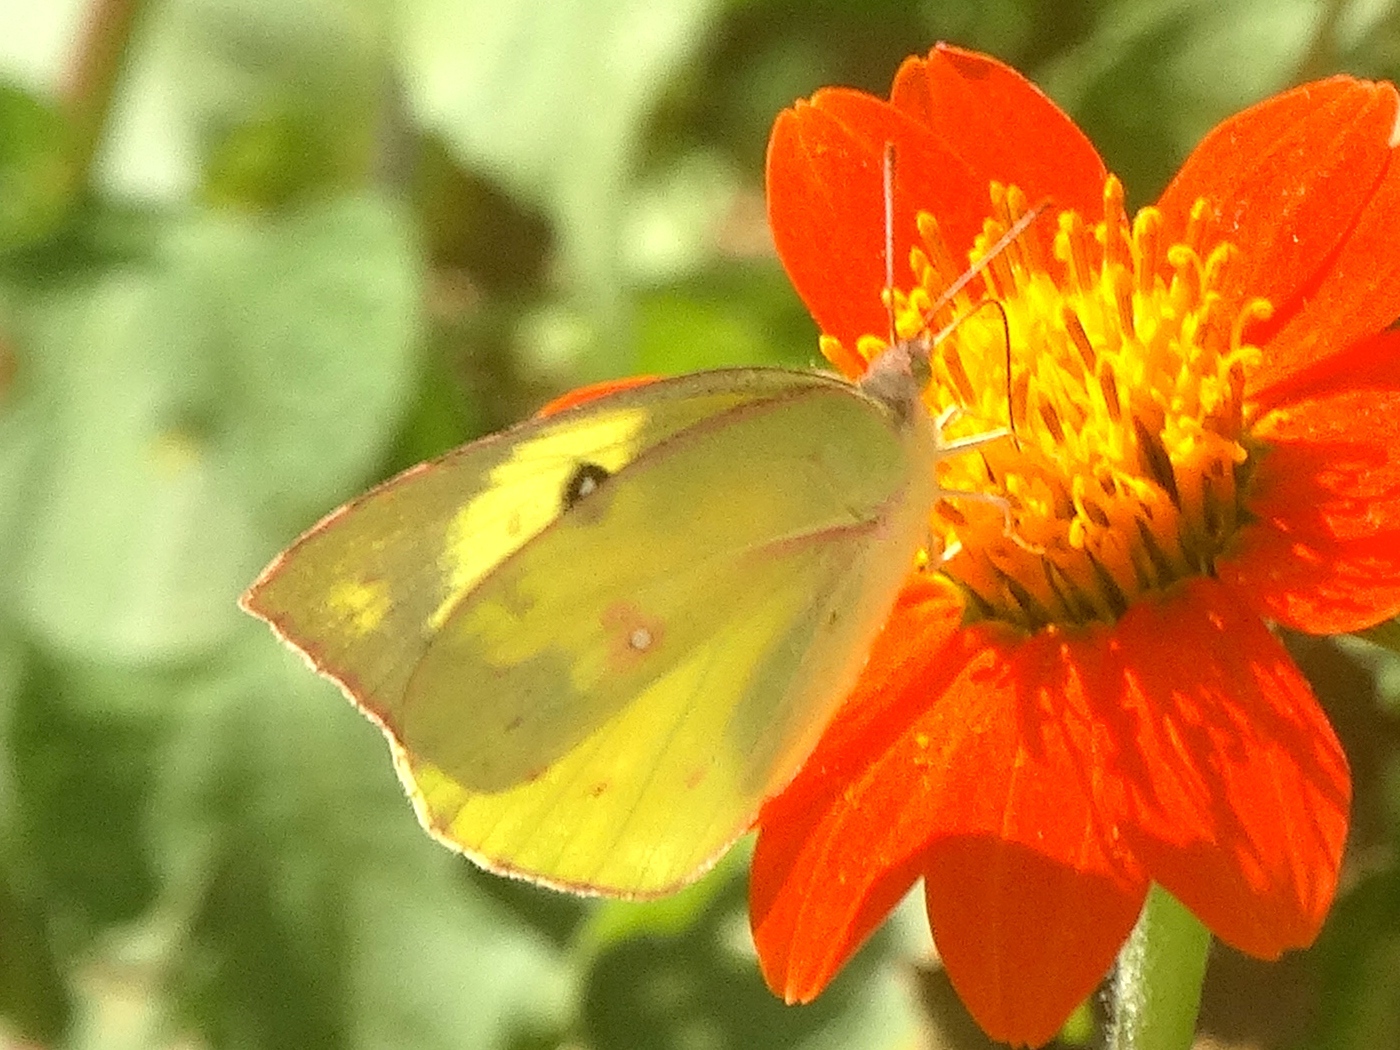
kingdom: Animalia
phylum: Arthropoda
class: Insecta
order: Lepidoptera
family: Pieridae
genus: Zerene
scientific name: Zerene cesonia
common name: Southern dogface
